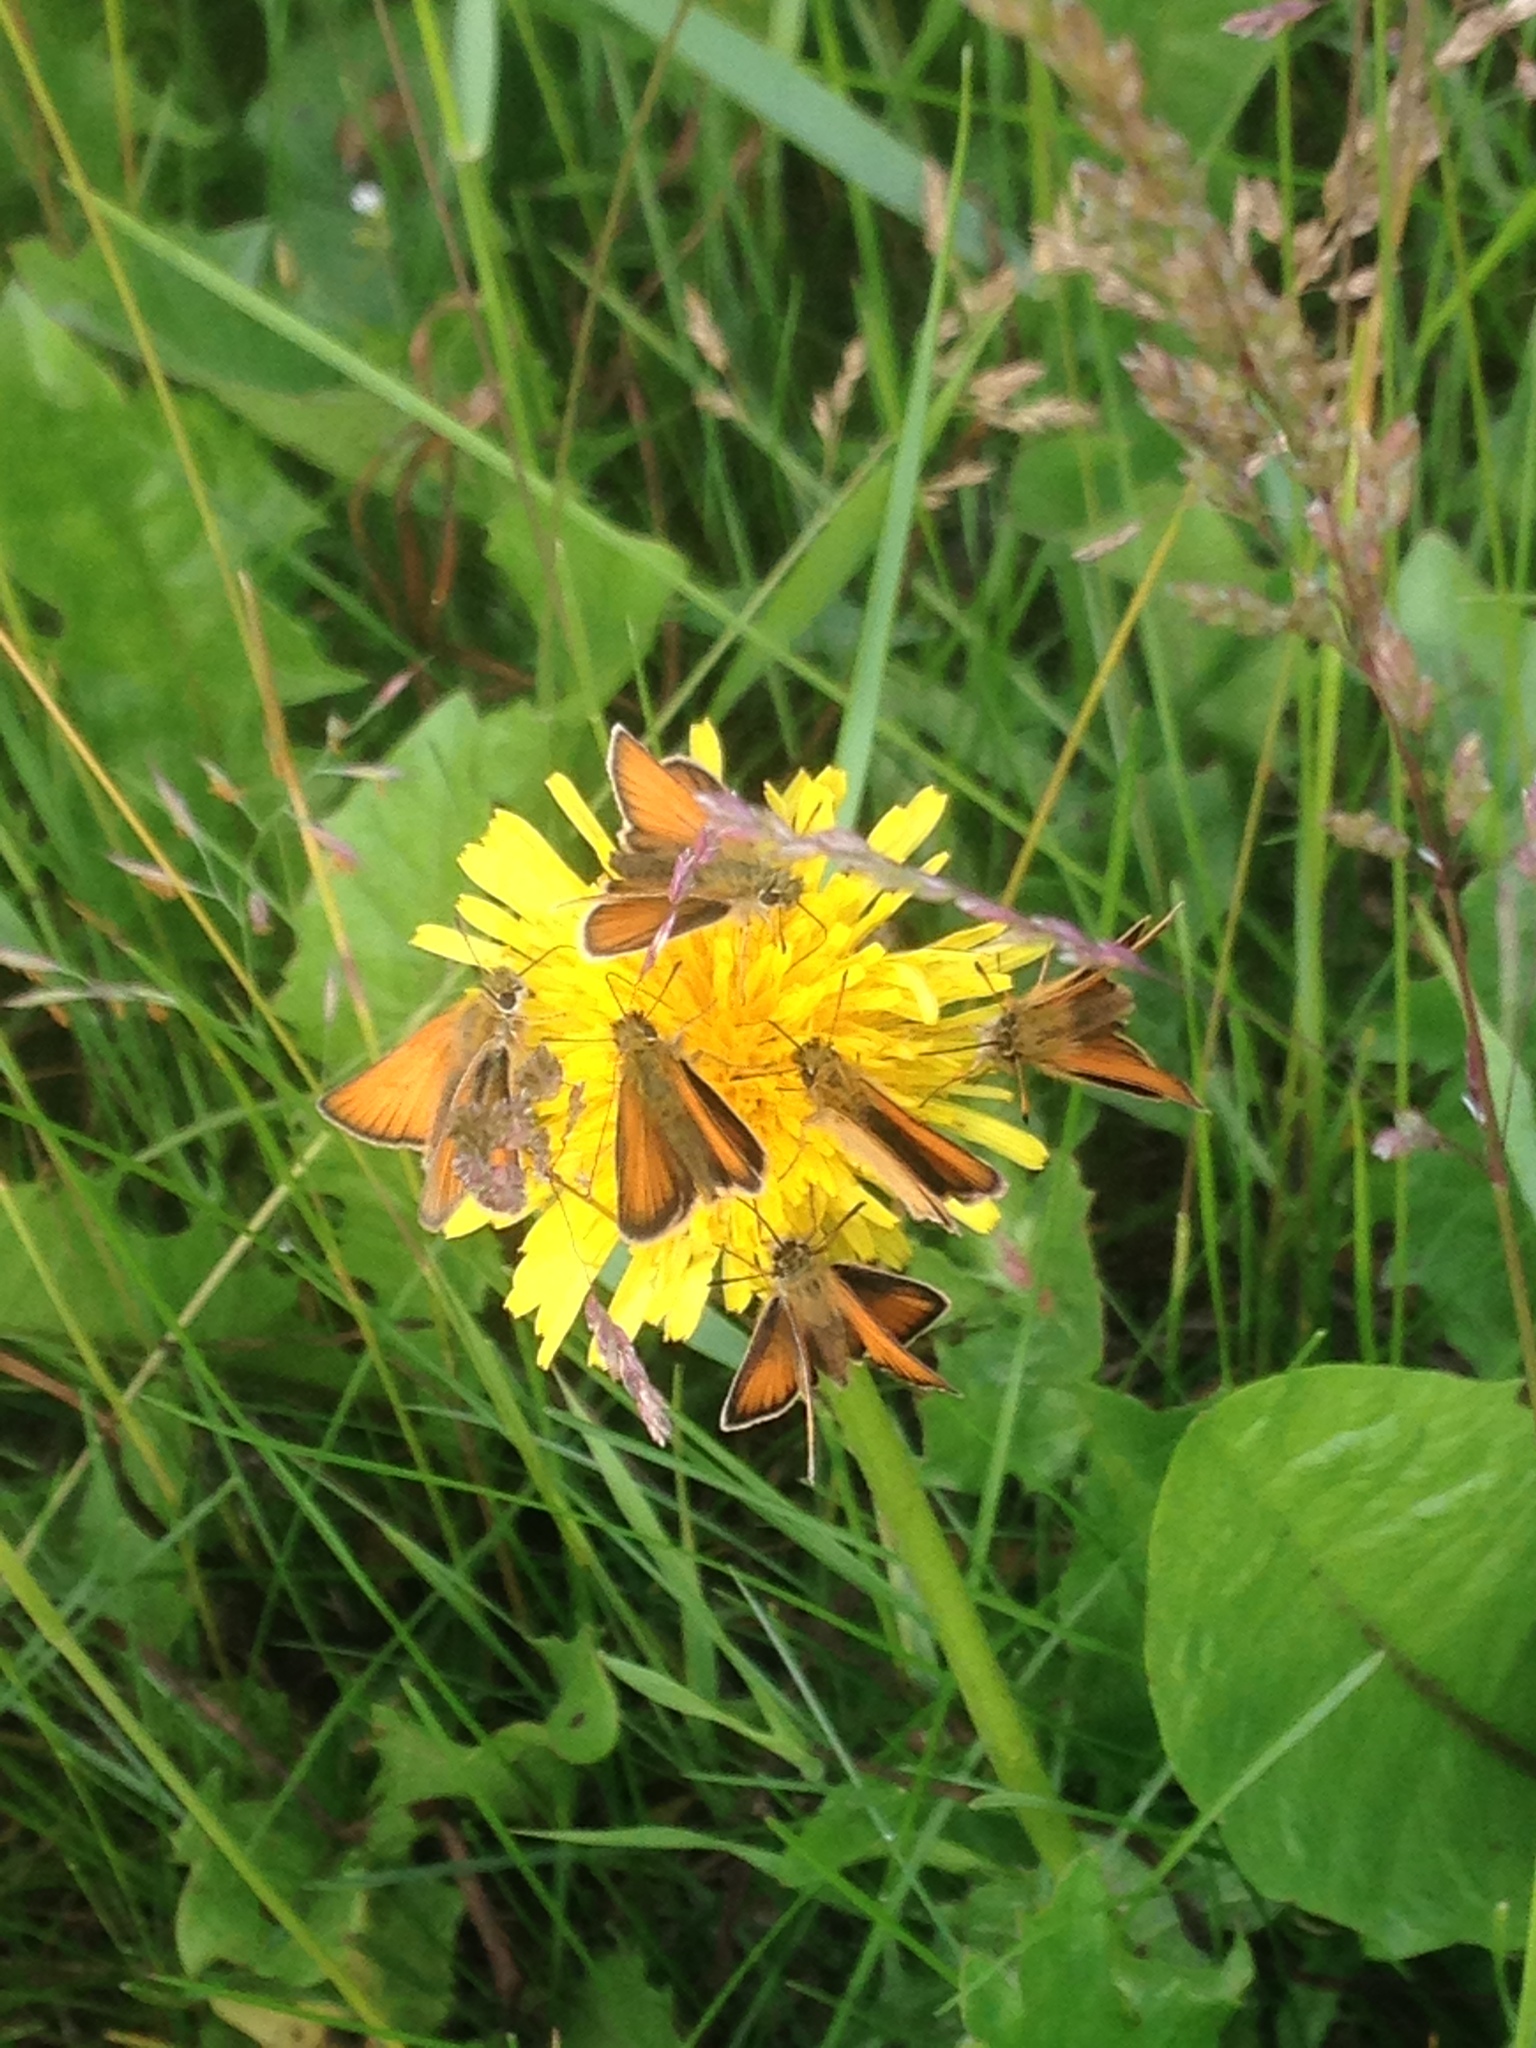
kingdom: Plantae
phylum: Tracheophyta
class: Magnoliopsida
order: Asterales
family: Asteraceae
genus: Taraxacum
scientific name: Taraxacum officinale
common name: Common dandelion
